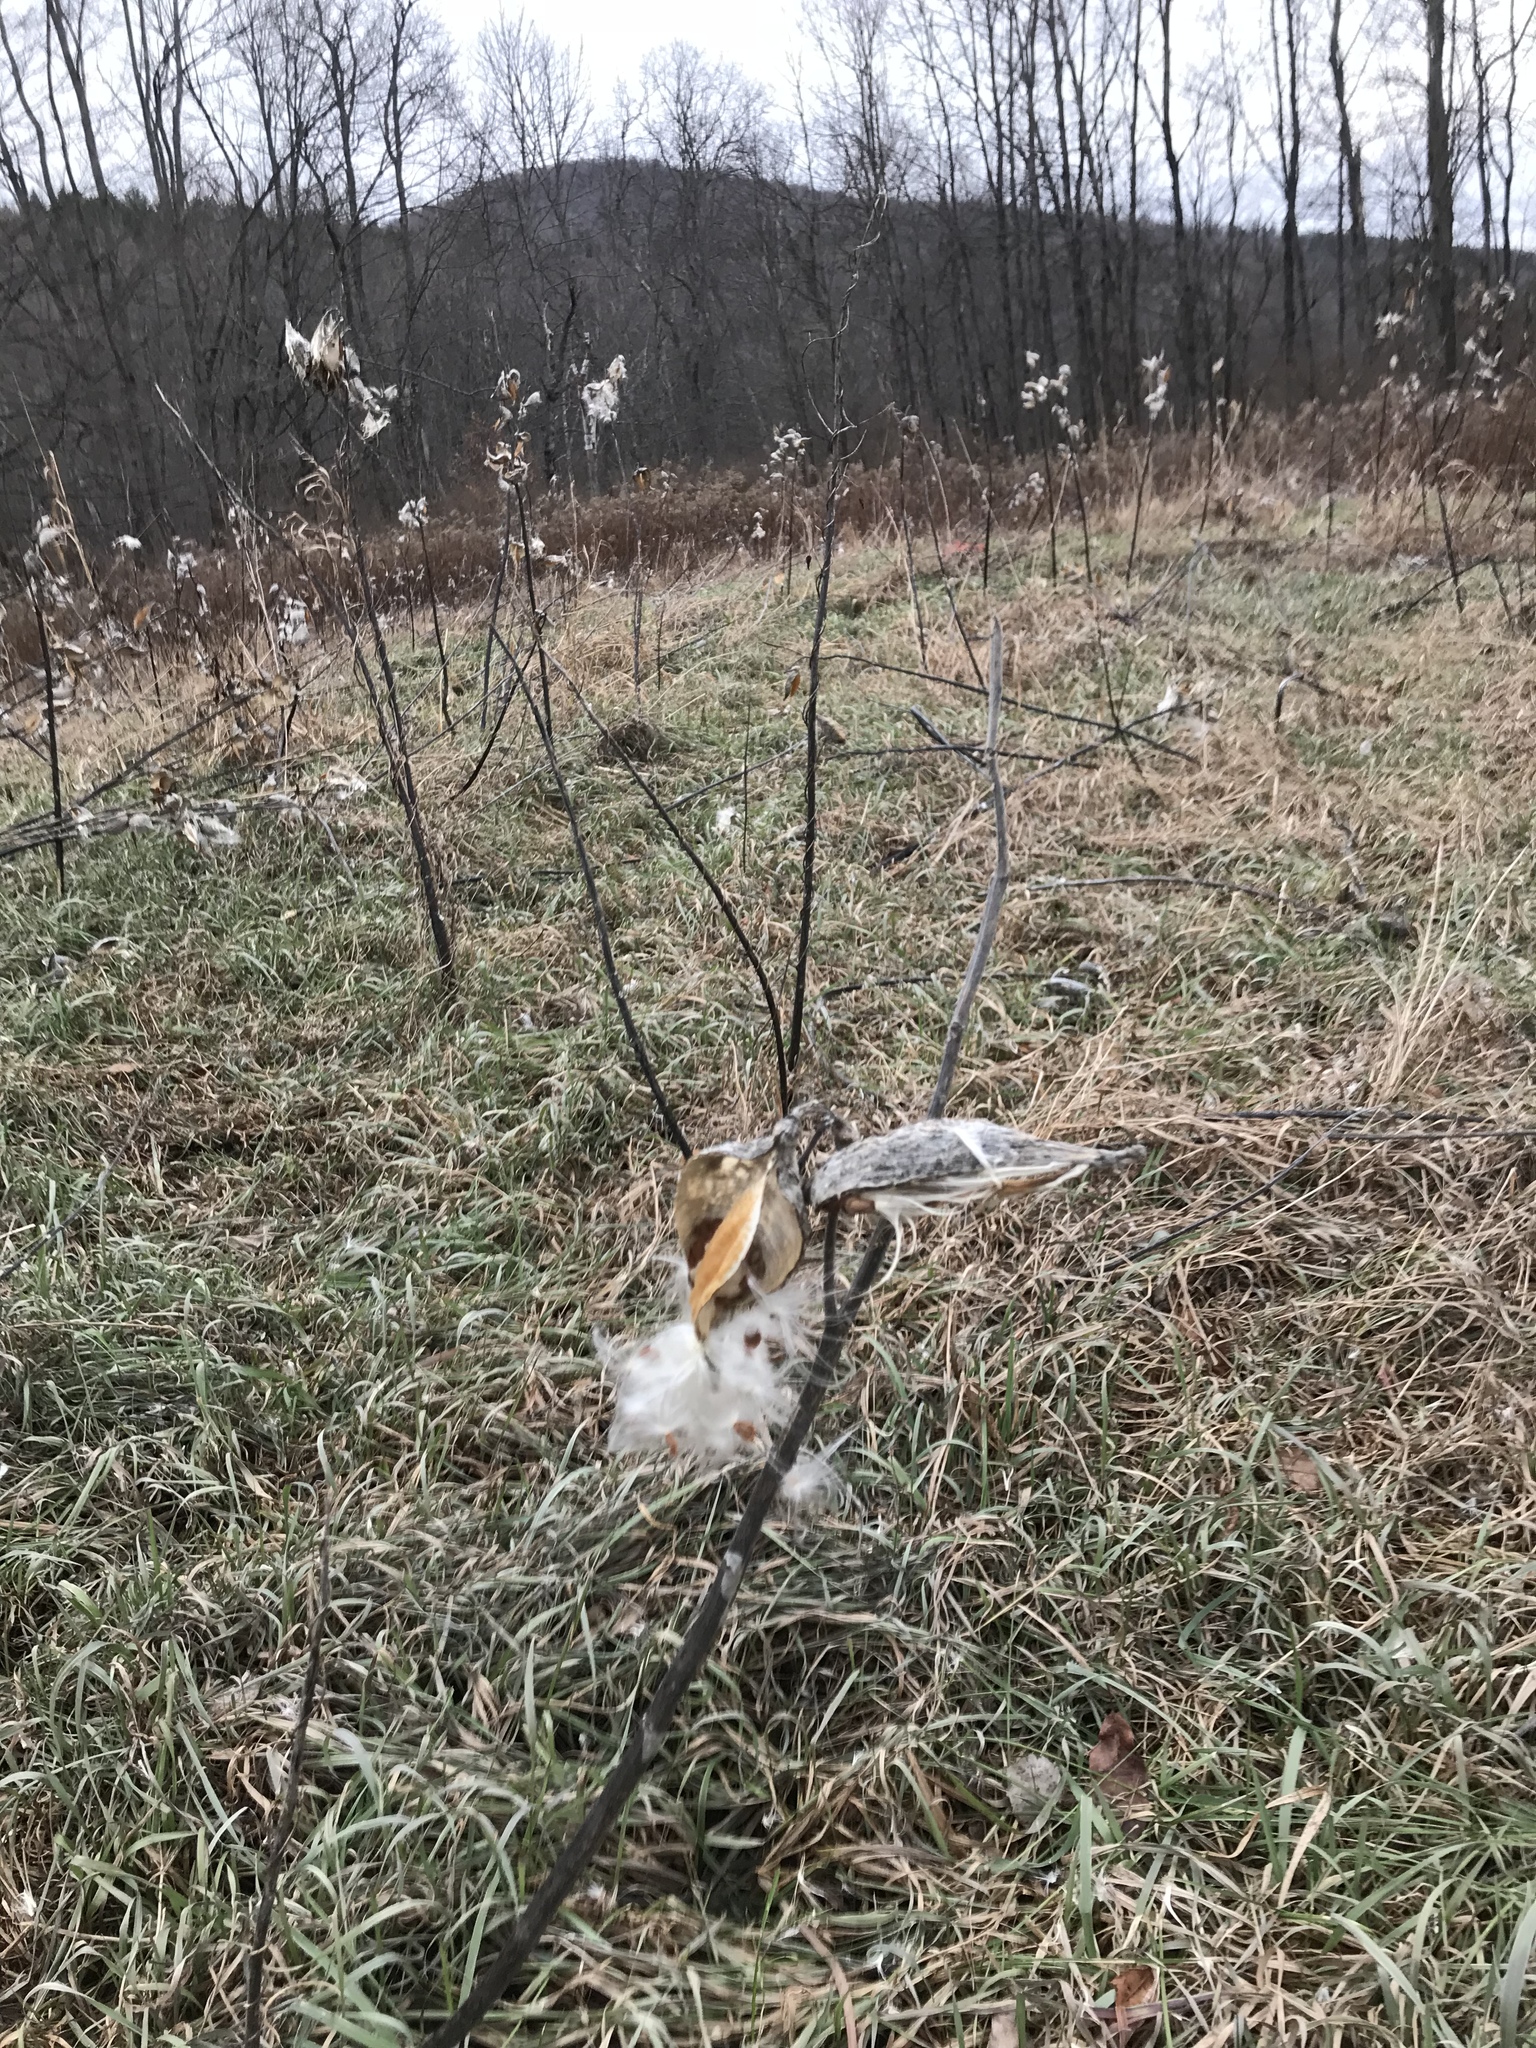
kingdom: Plantae
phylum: Tracheophyta
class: Magnoliopsida
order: Gentianales
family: Apocynaceae
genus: Asclepias
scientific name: Asclepias syriaca
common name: Common milkweed
